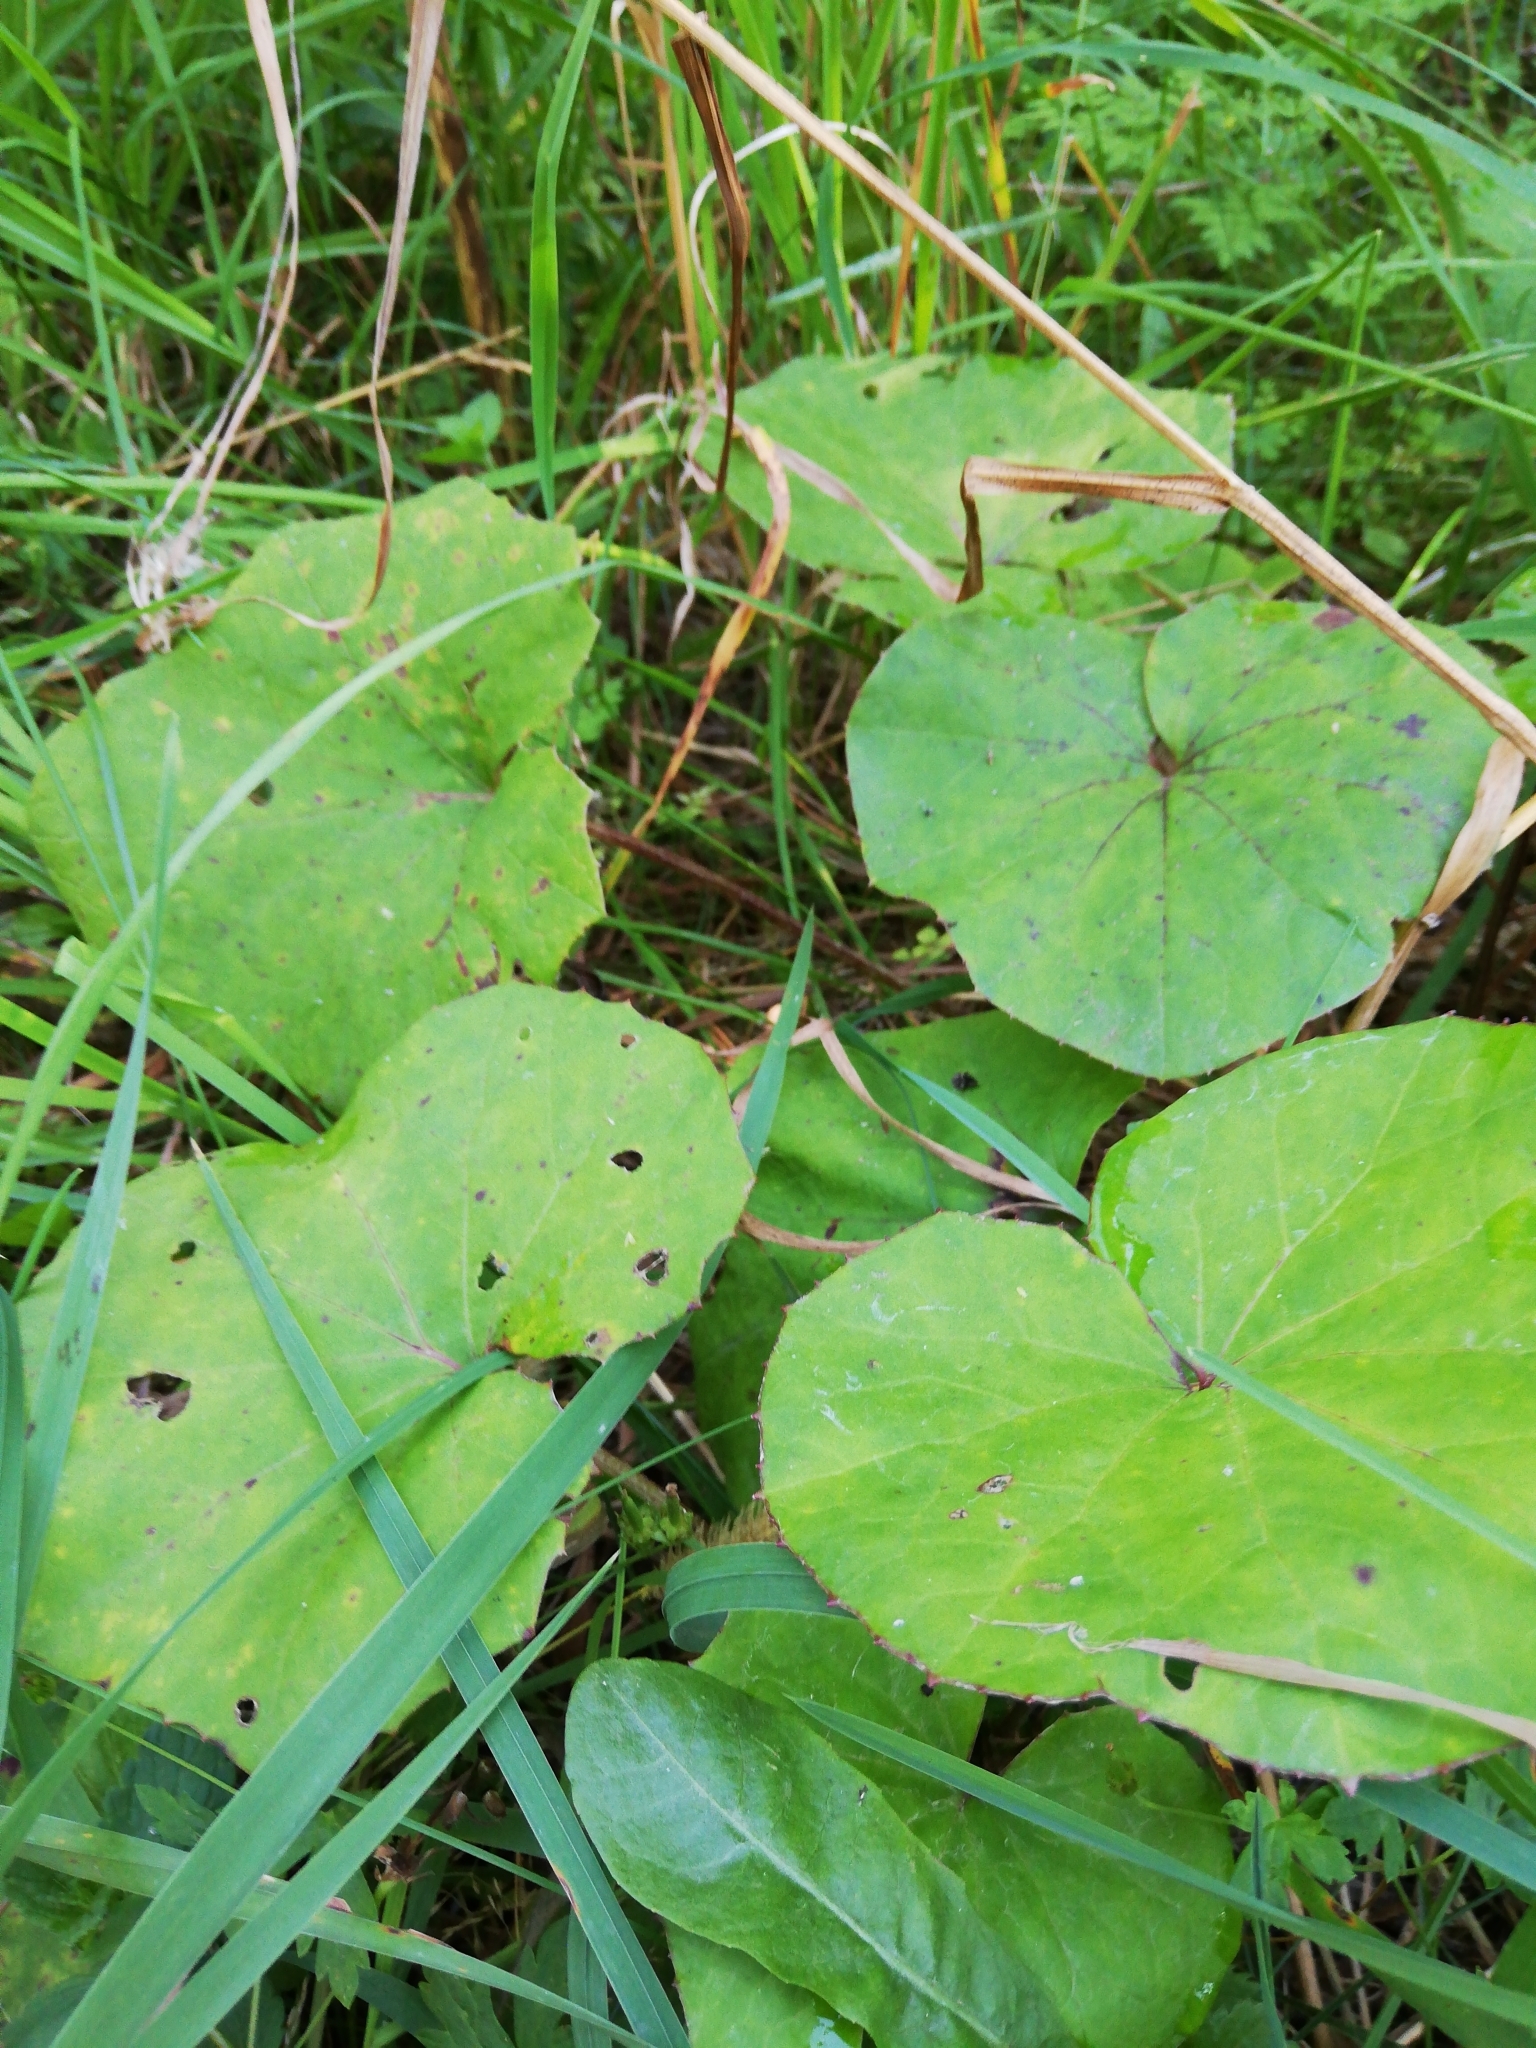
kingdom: Plantae
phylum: Tracheophyta
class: Magnoliopsida
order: Asterales
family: Asteraceae
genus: Tussilago
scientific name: Tussilago farfara
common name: Coltsfoot
